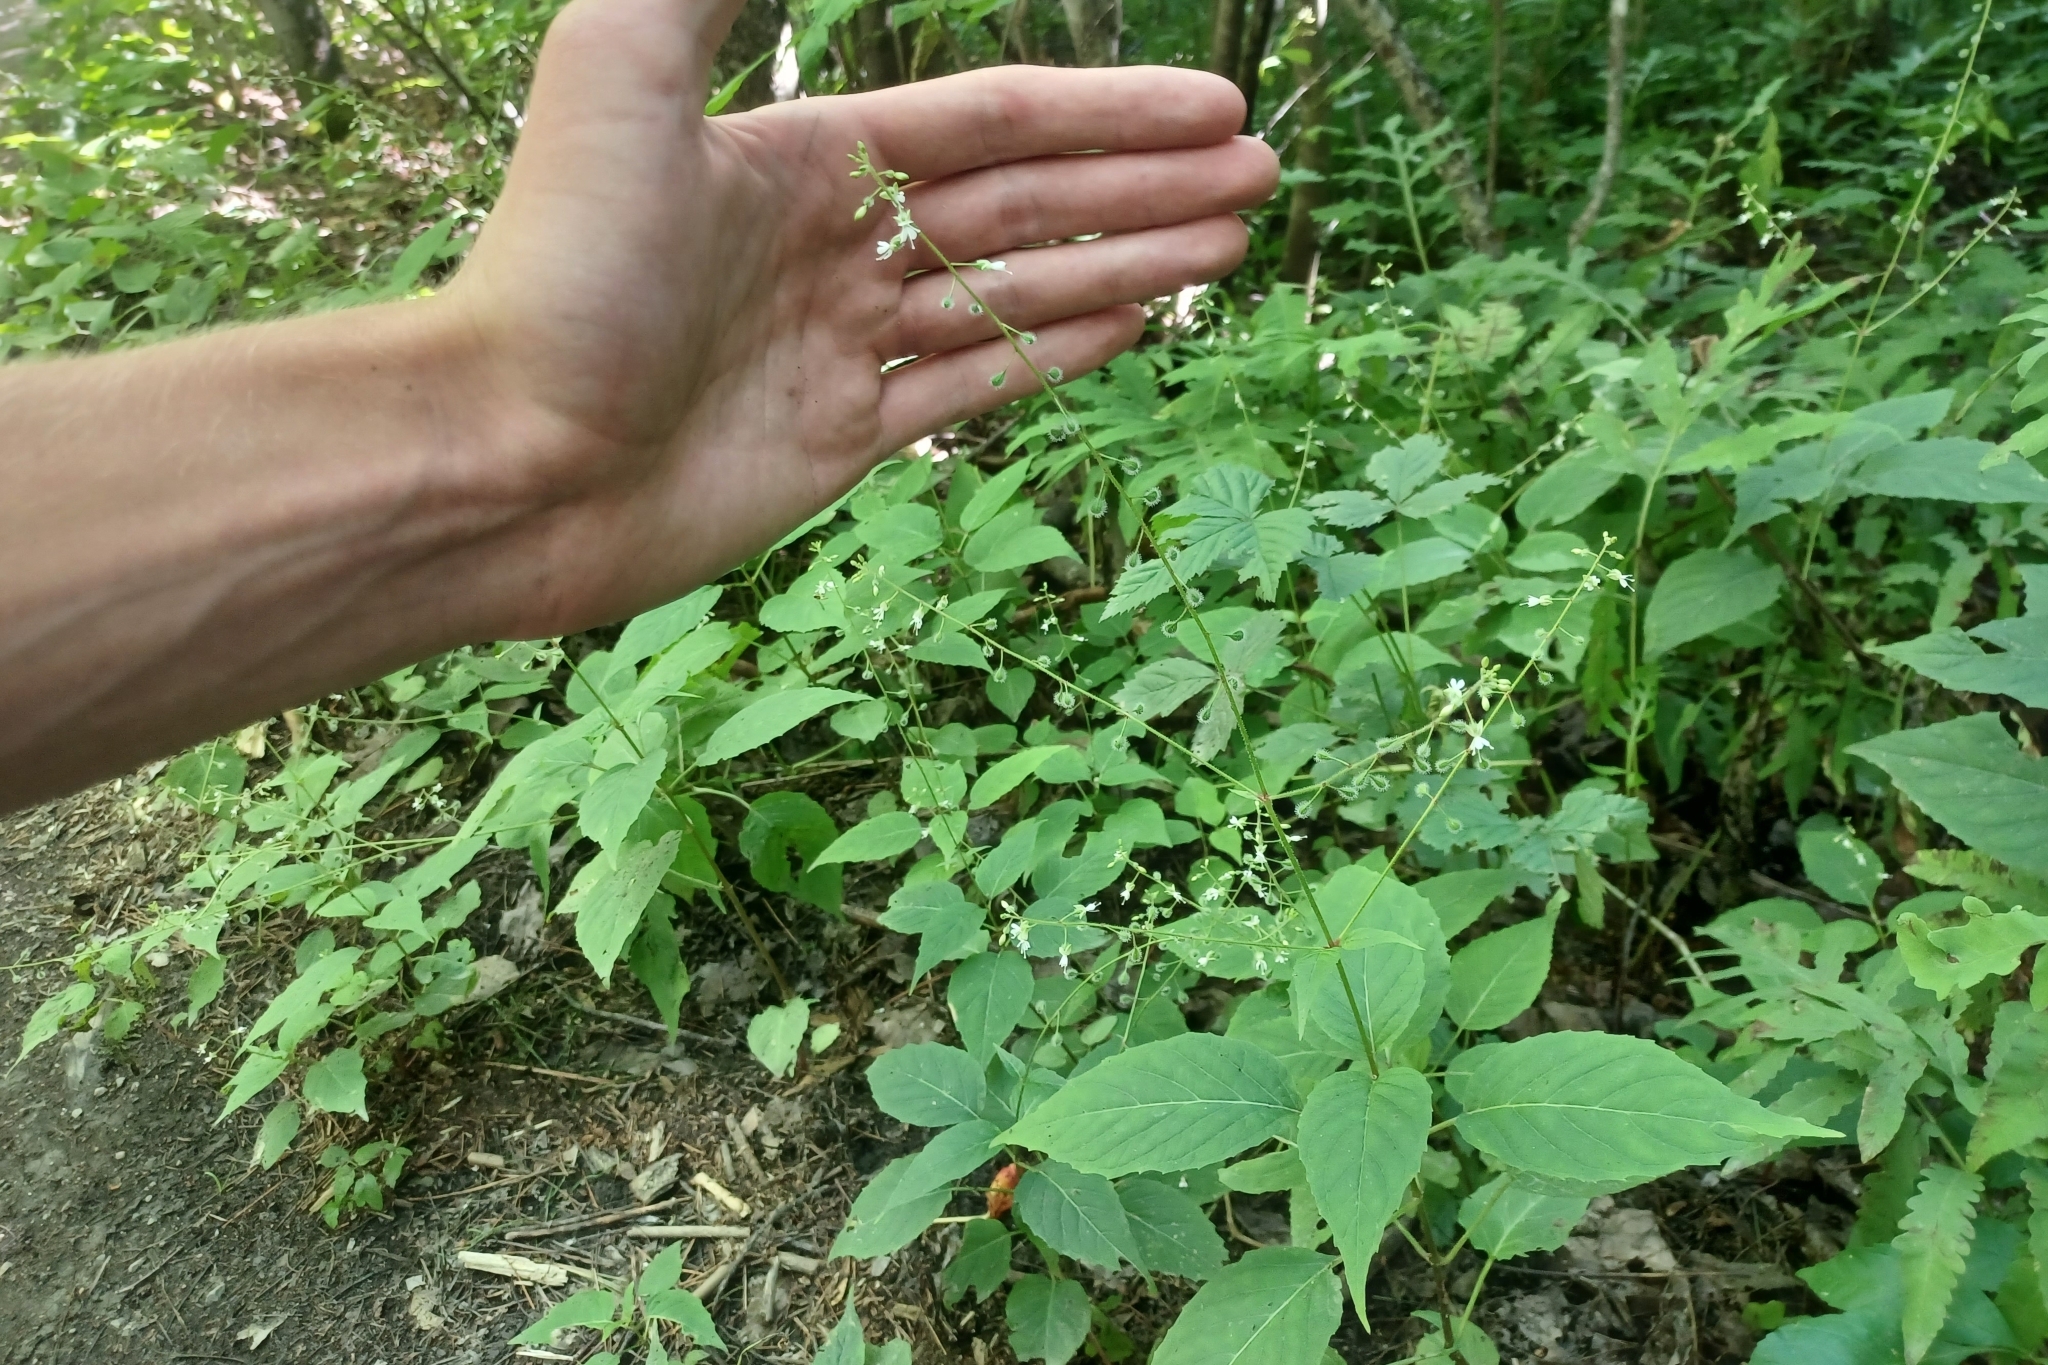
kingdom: Plantae
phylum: Tracheophyta
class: Magnoliopsida
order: Myrtales
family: Onagraceae
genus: Circaea
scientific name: Circaea canadensis
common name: Broad-leaved enchanter's nightshade
